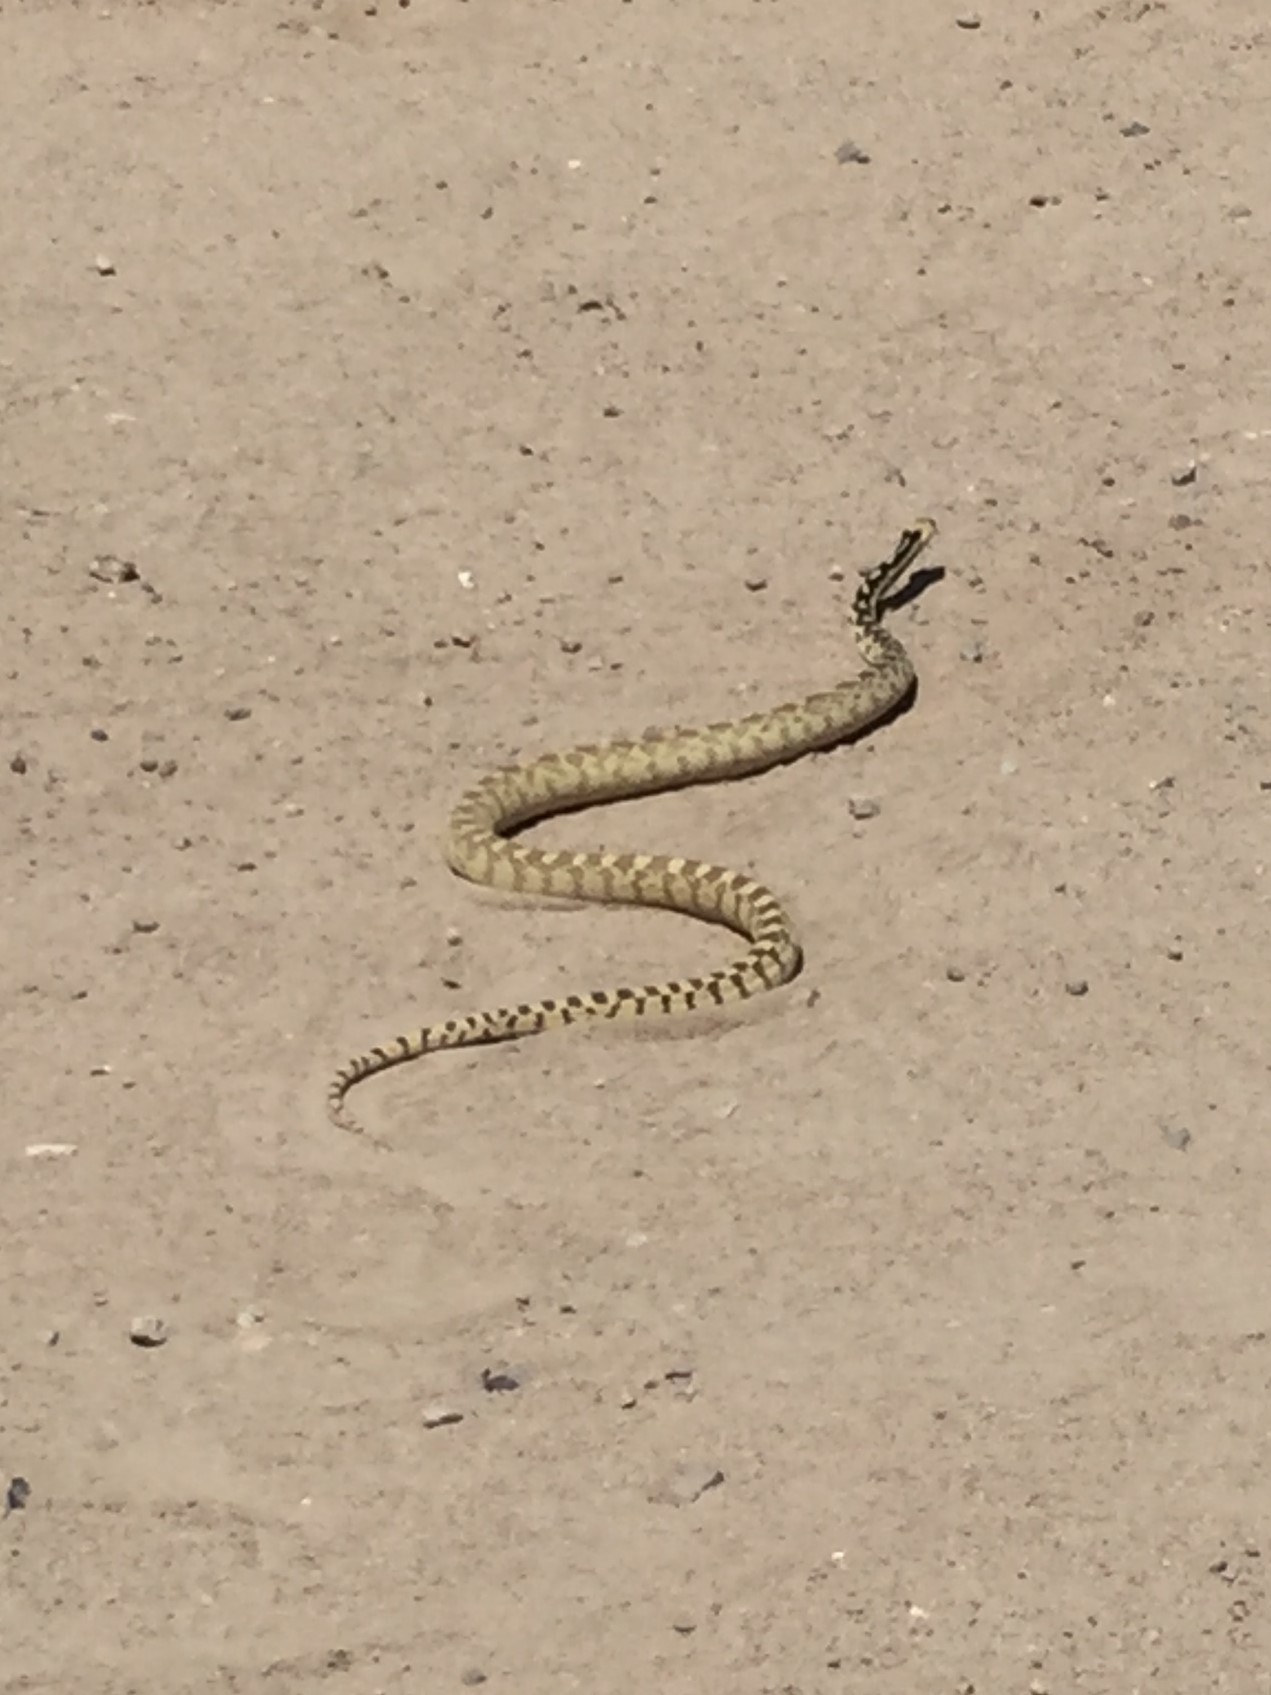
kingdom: Animalia
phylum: Chordata
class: Squamata
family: Colubridae
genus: Pituophis
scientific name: Pituophis catenifer
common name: Gopher snake
